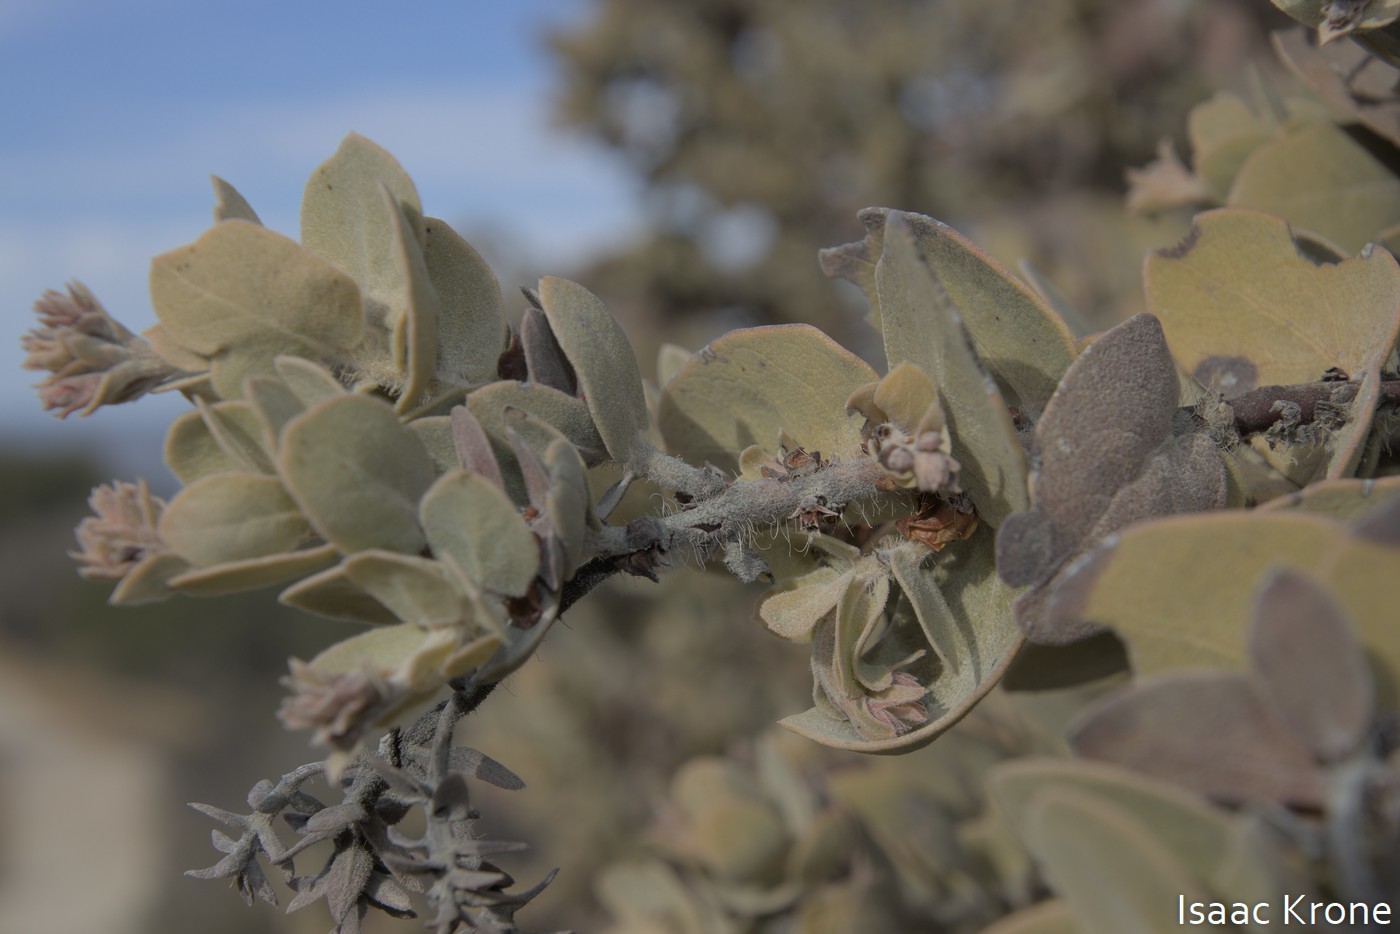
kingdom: Plantae
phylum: Tracheophyta
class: Magnoliopsida
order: Ericales
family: Ericaceae
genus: Arctostaphylos
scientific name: Arctostaphylos auriculata
